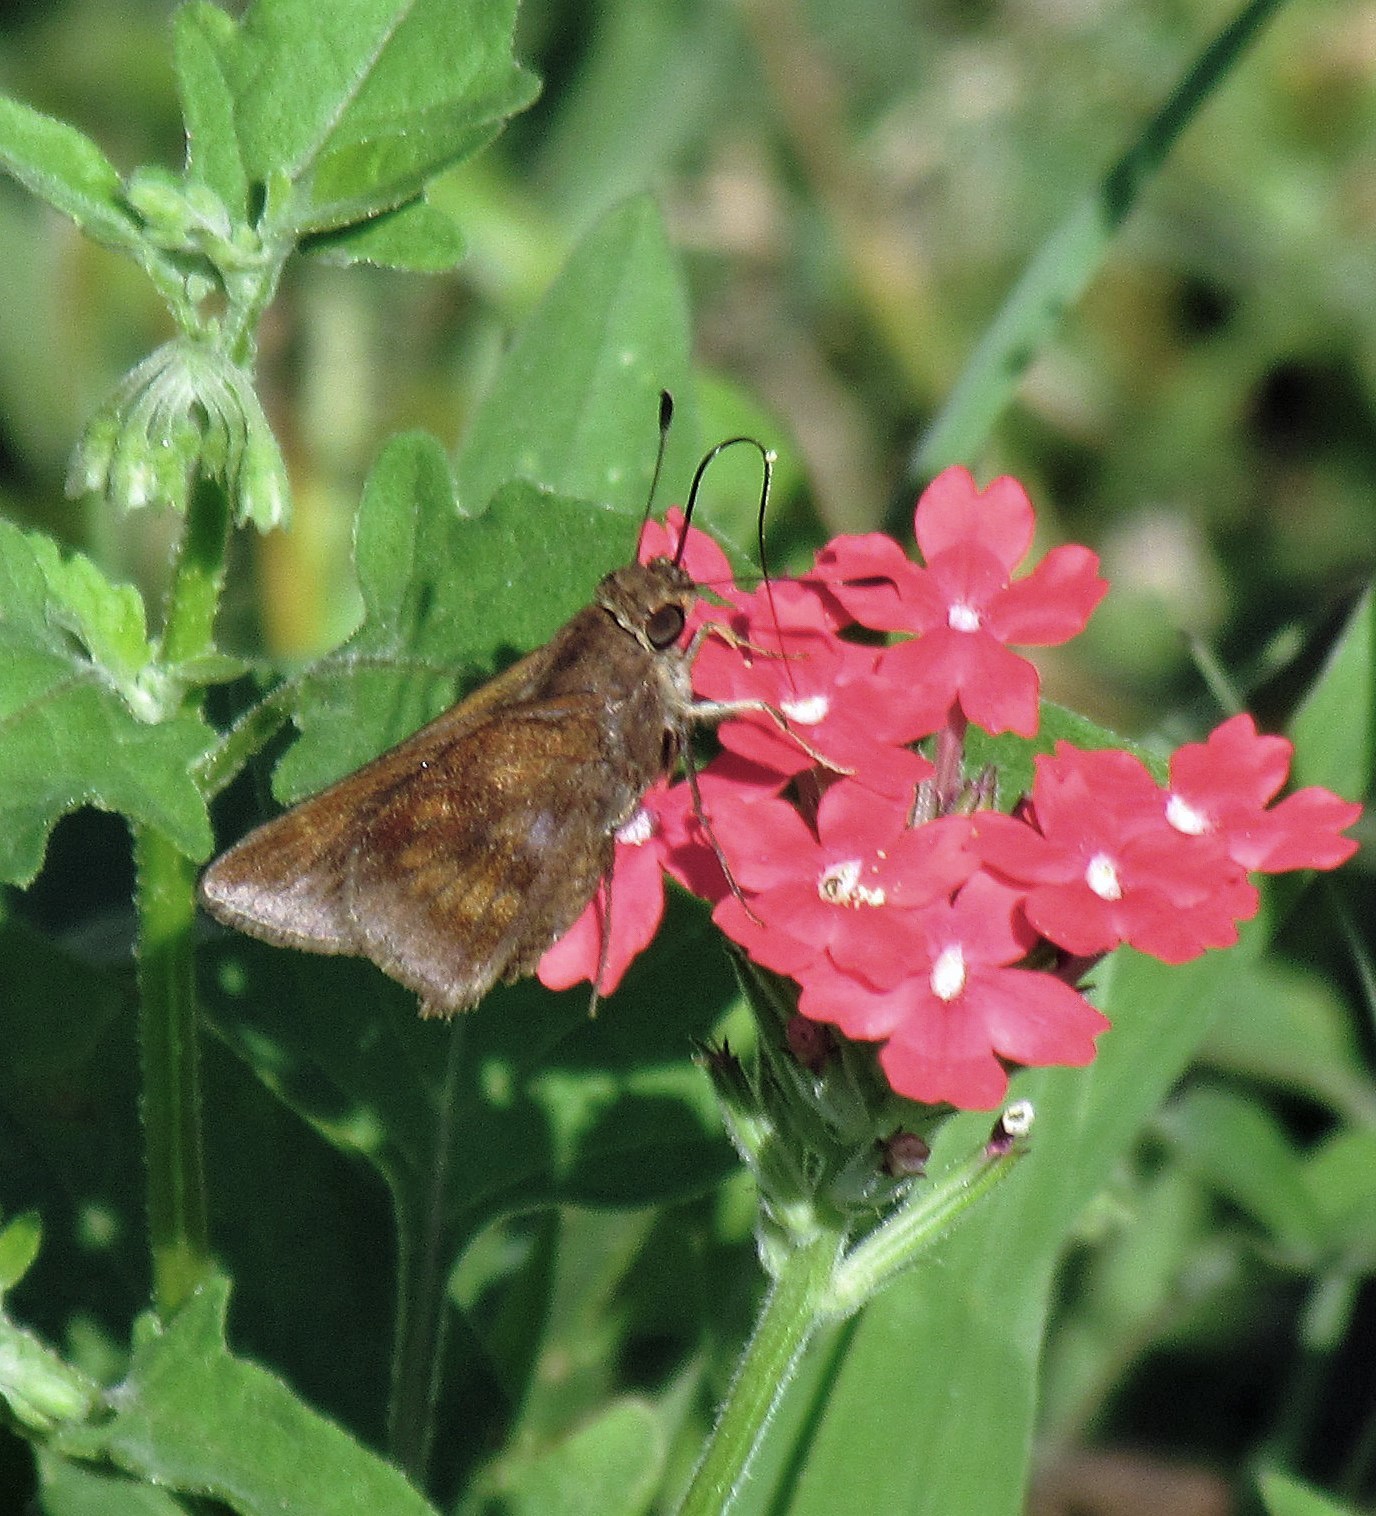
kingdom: Animalia
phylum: Arthropoda
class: Insecta
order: Lepidoptera
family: Hesperiidae
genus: Quinta
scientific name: Quinta cannae
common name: Canna skipper
